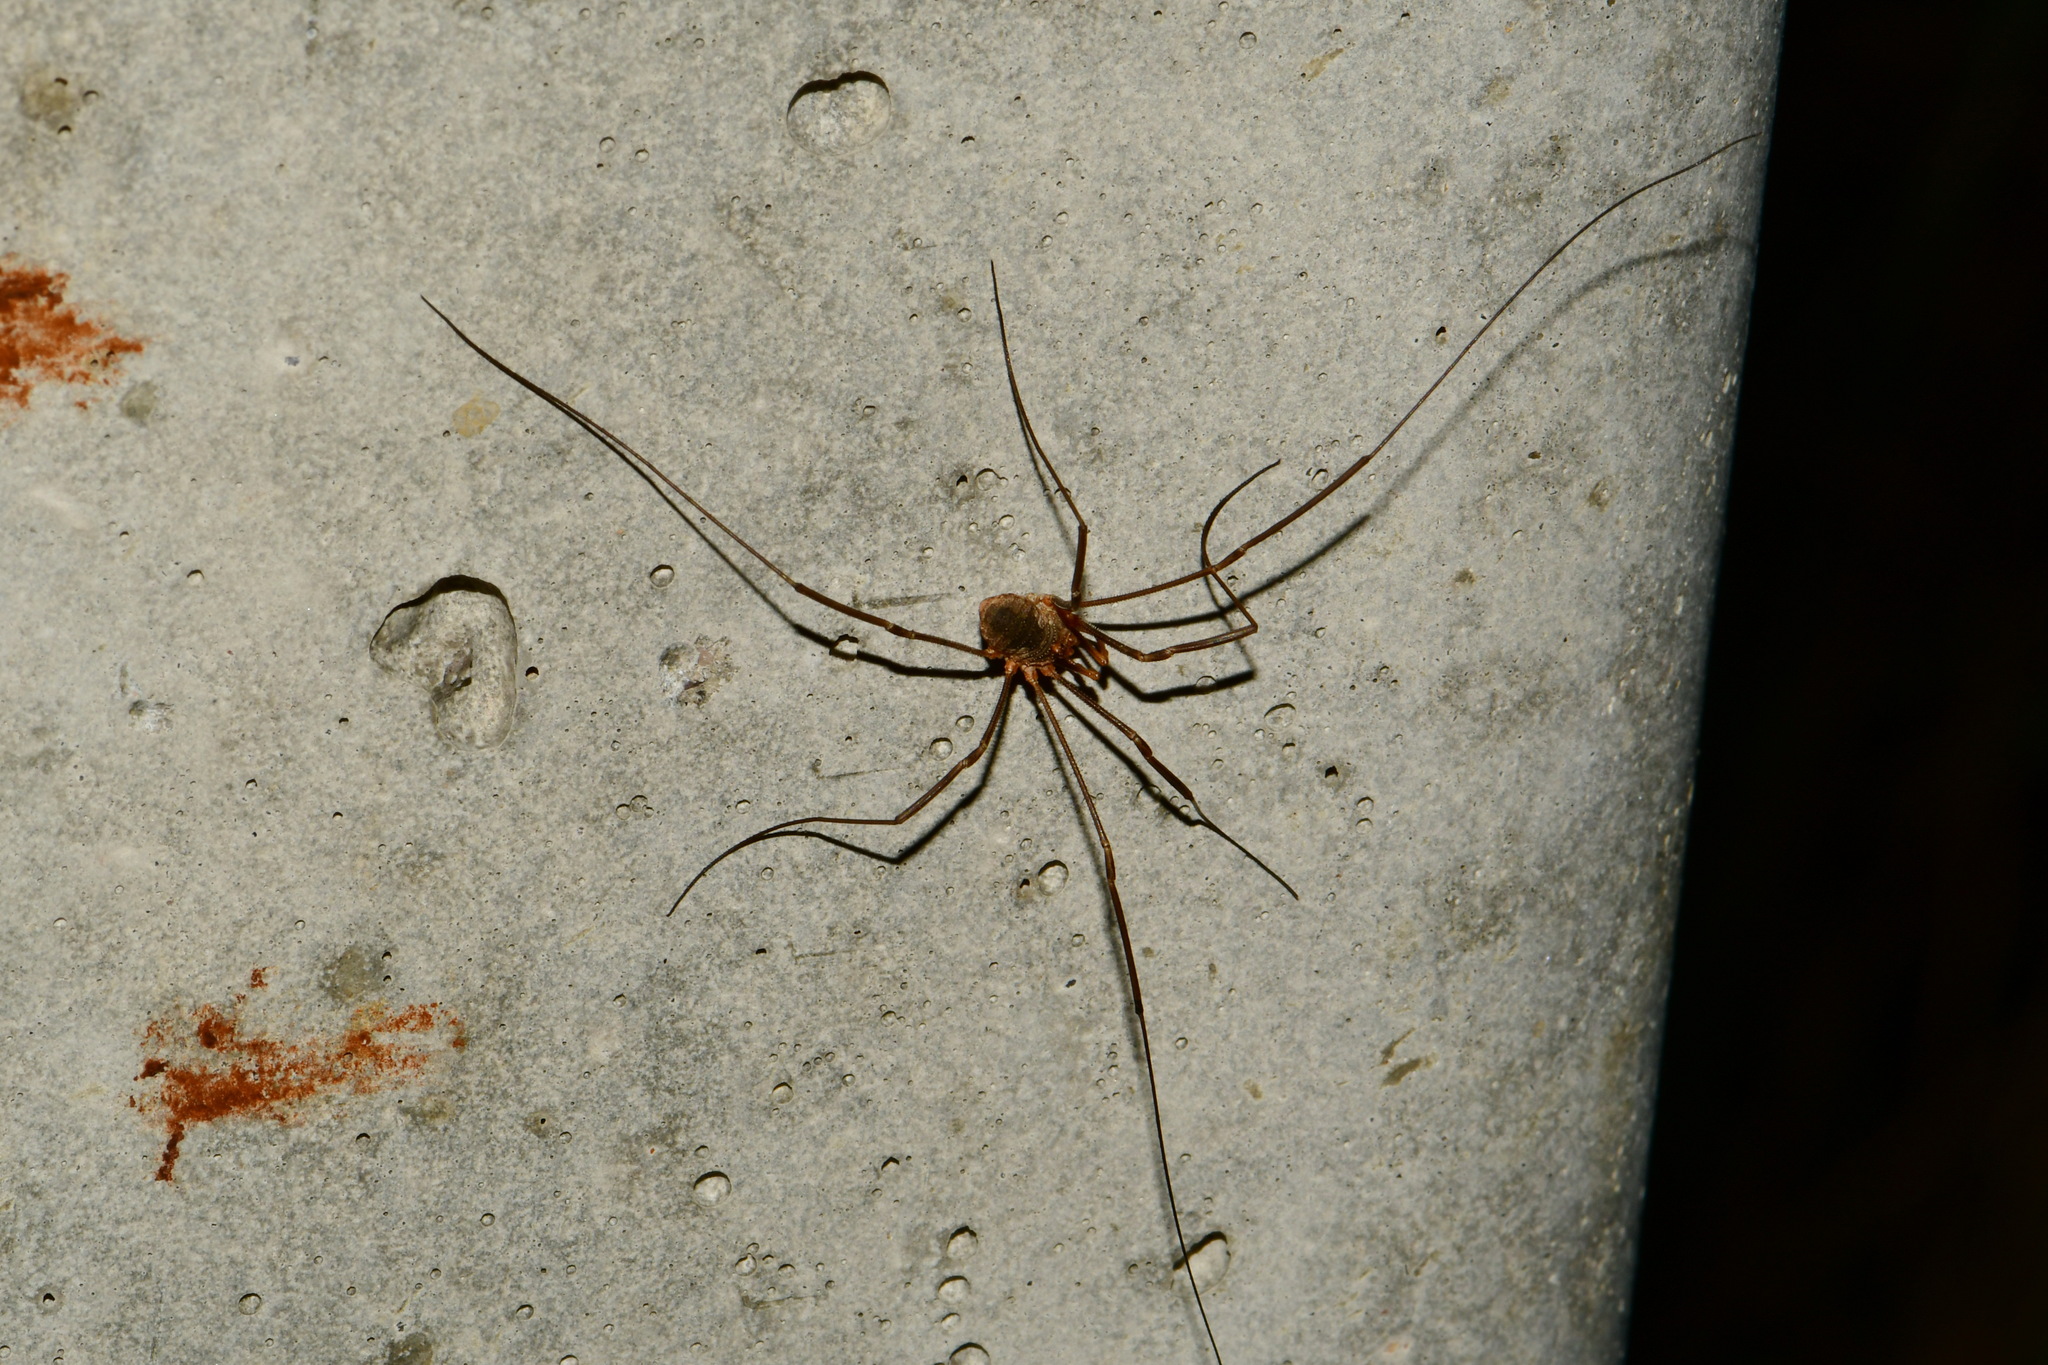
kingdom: Animalia
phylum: Arthropoda
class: Arachnida
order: Opiliones
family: Phalangiidae
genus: Phalangium
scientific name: Phalangium opilio
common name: Daddy longleg
